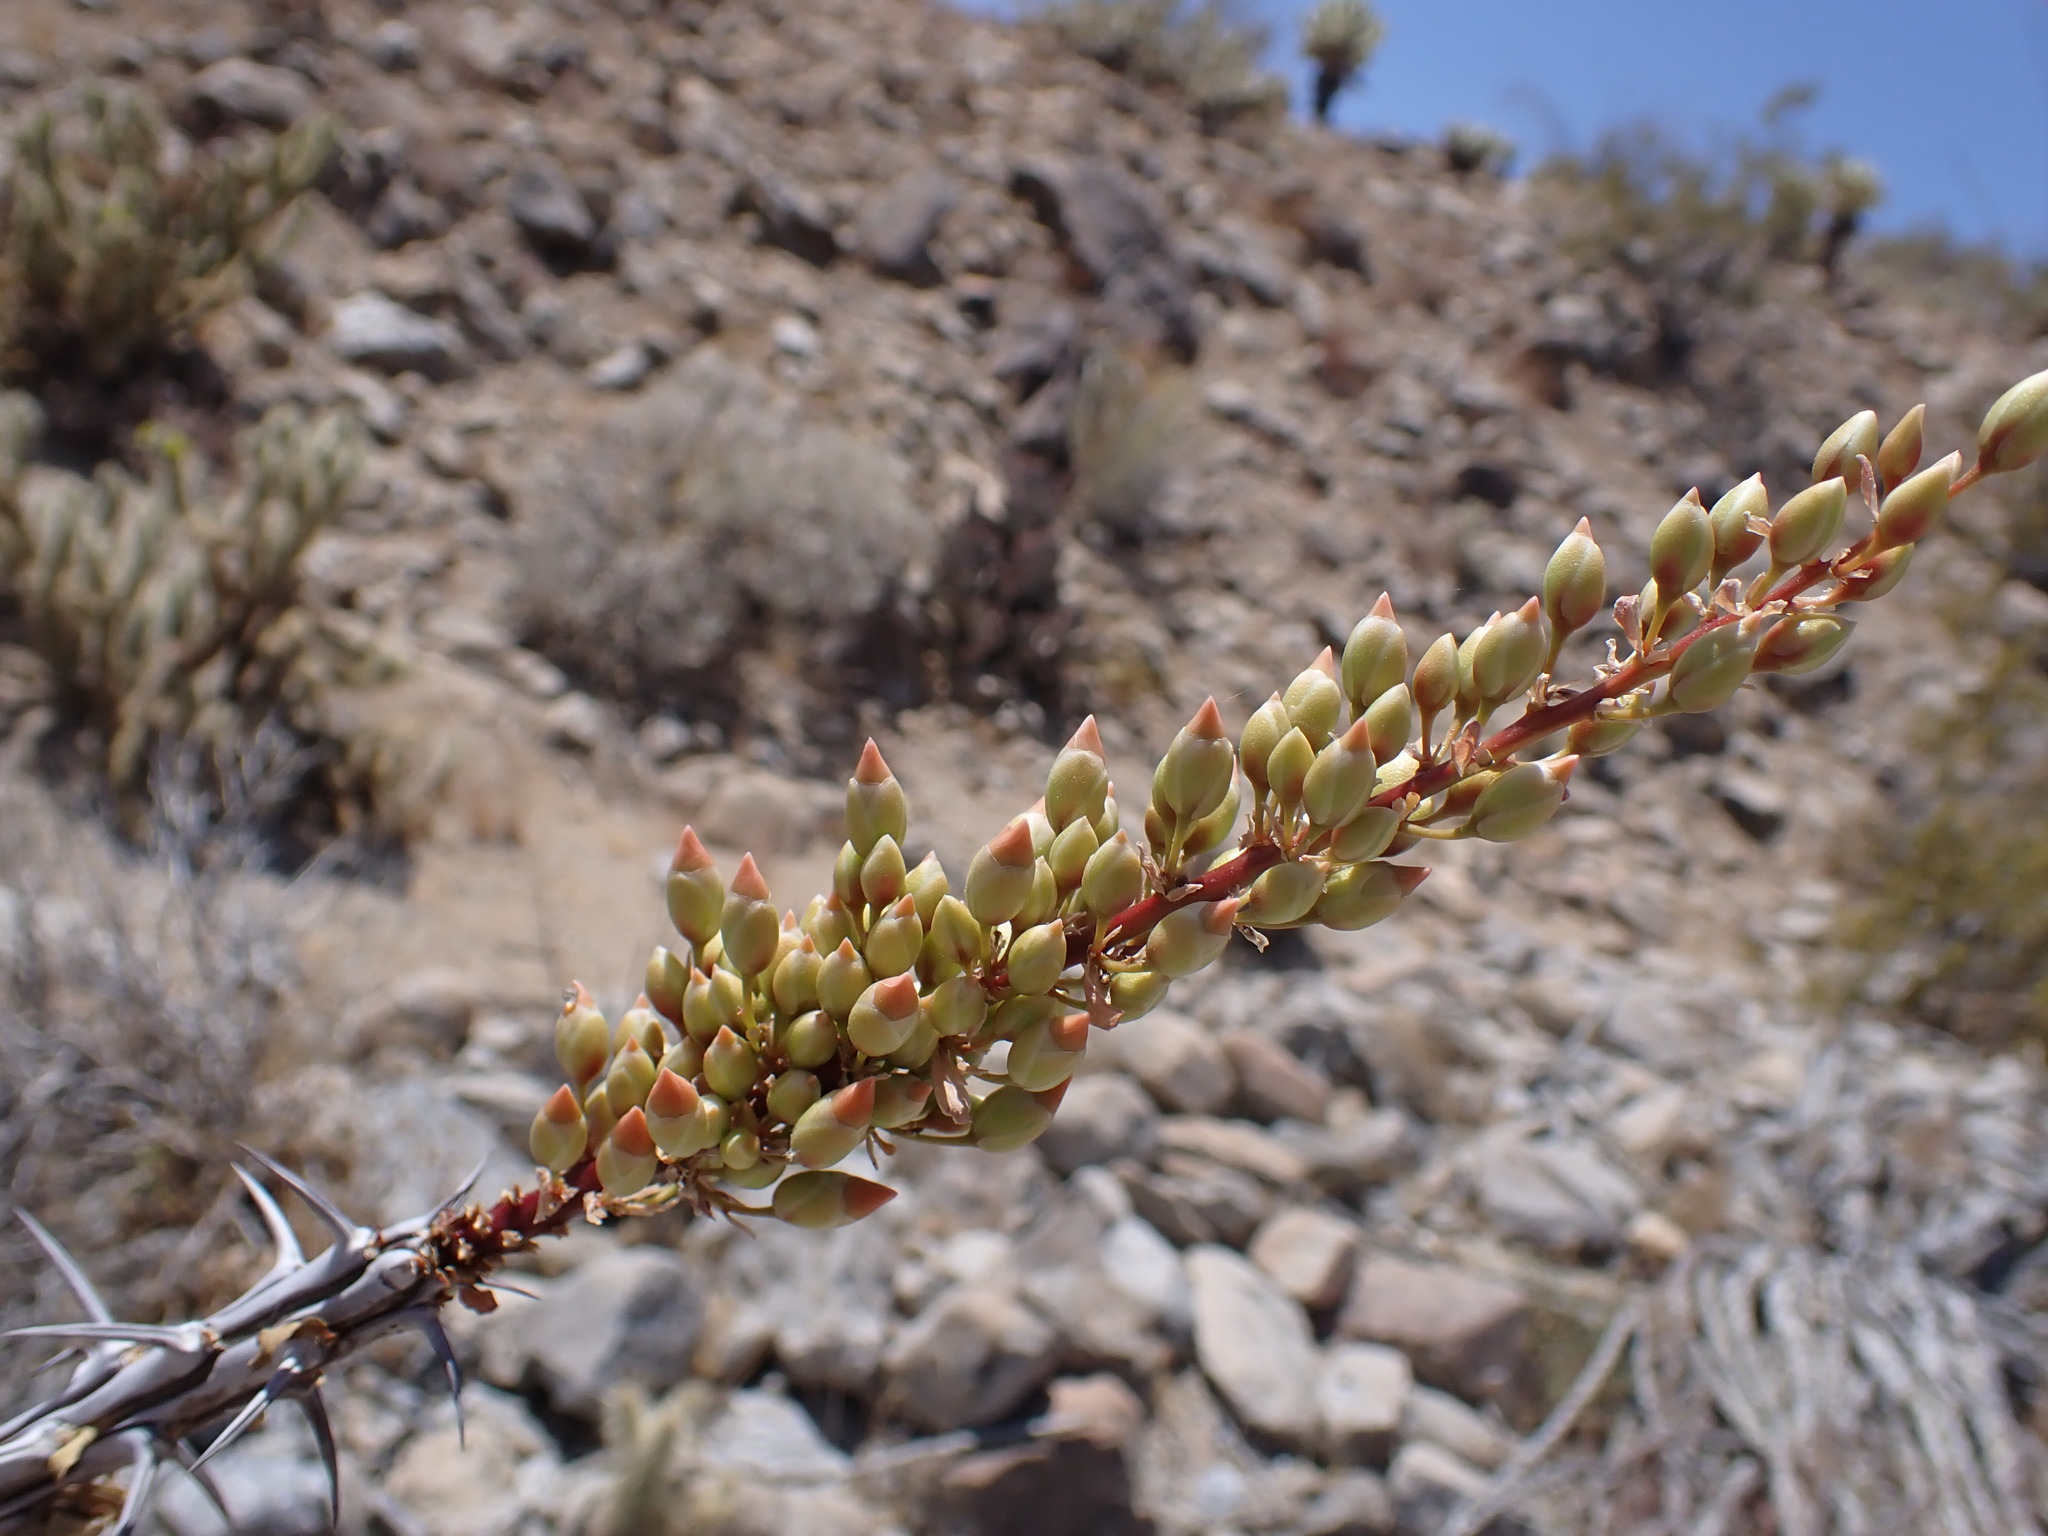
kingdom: Plantae
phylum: Tracheophyta
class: Magnoliopsida
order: Ericales
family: Fouquieriaceae
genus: Fouquieria
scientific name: Fouquieria splendens
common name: Vine-cactus
